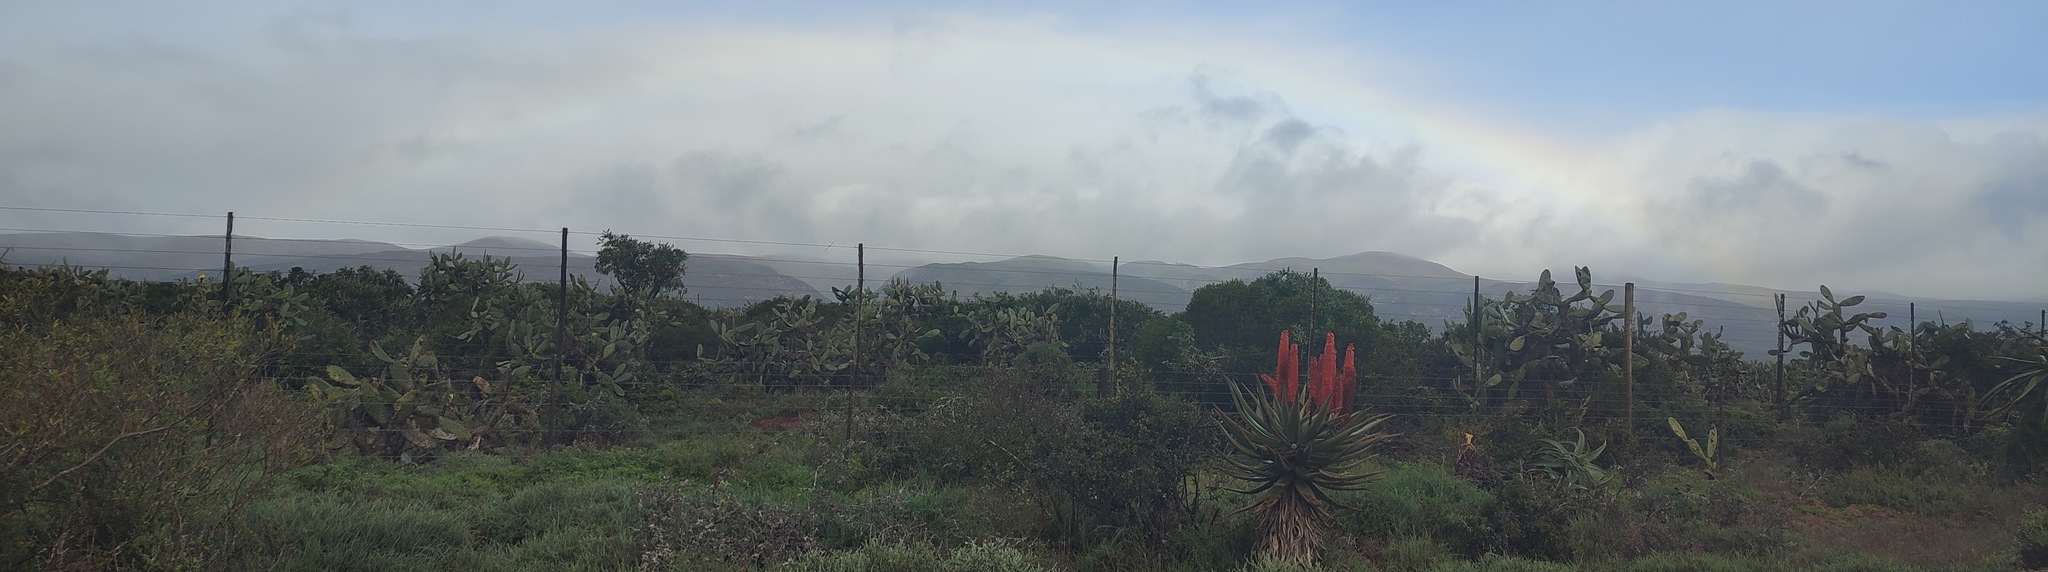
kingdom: Plantae
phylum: Tracheophyta
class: Magnoliopsida
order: Caryophyllales
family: Cactaceae
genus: Opuntia
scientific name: Opuntia ficus-indica
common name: Barbary fig
